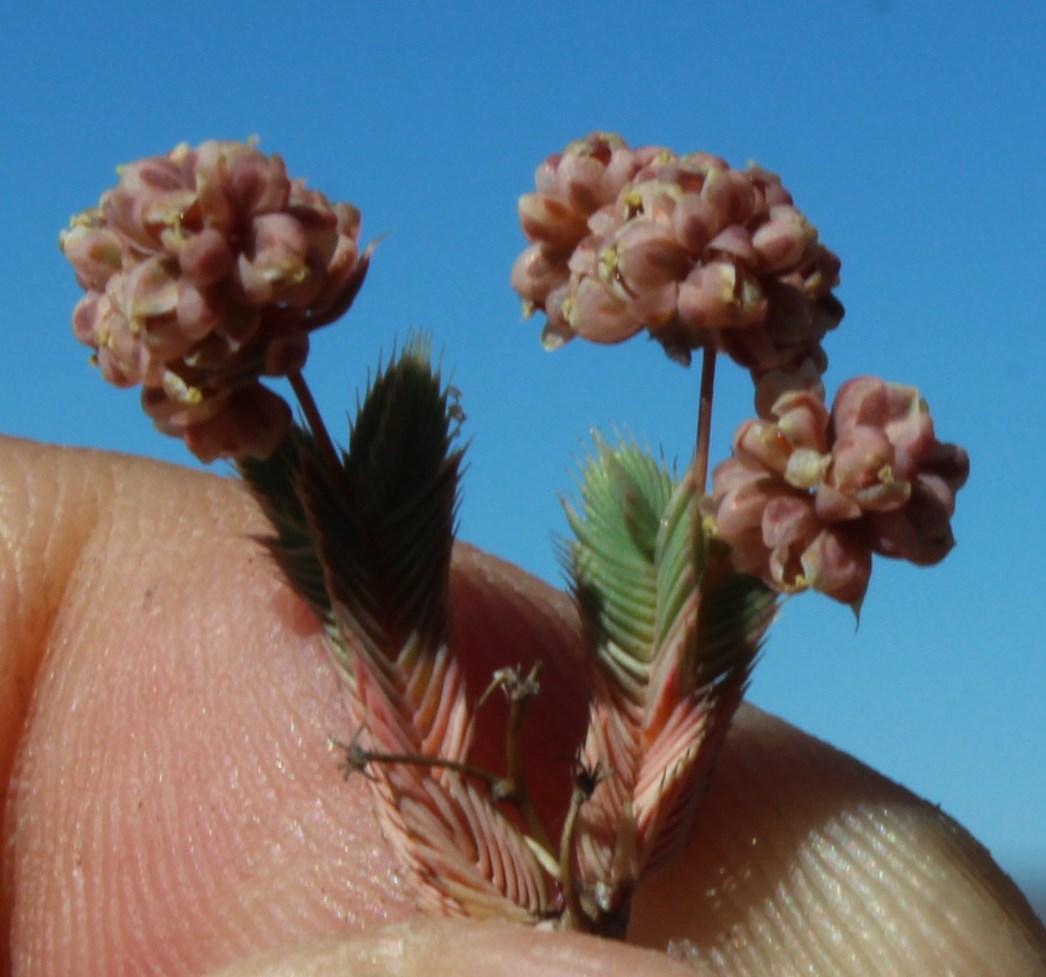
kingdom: Plantae
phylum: Tracheophyta
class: Magnoliopsida
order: Caryophyllales
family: Molluginaceae
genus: Psammotropha
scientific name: Psammotropha quadrangularis
